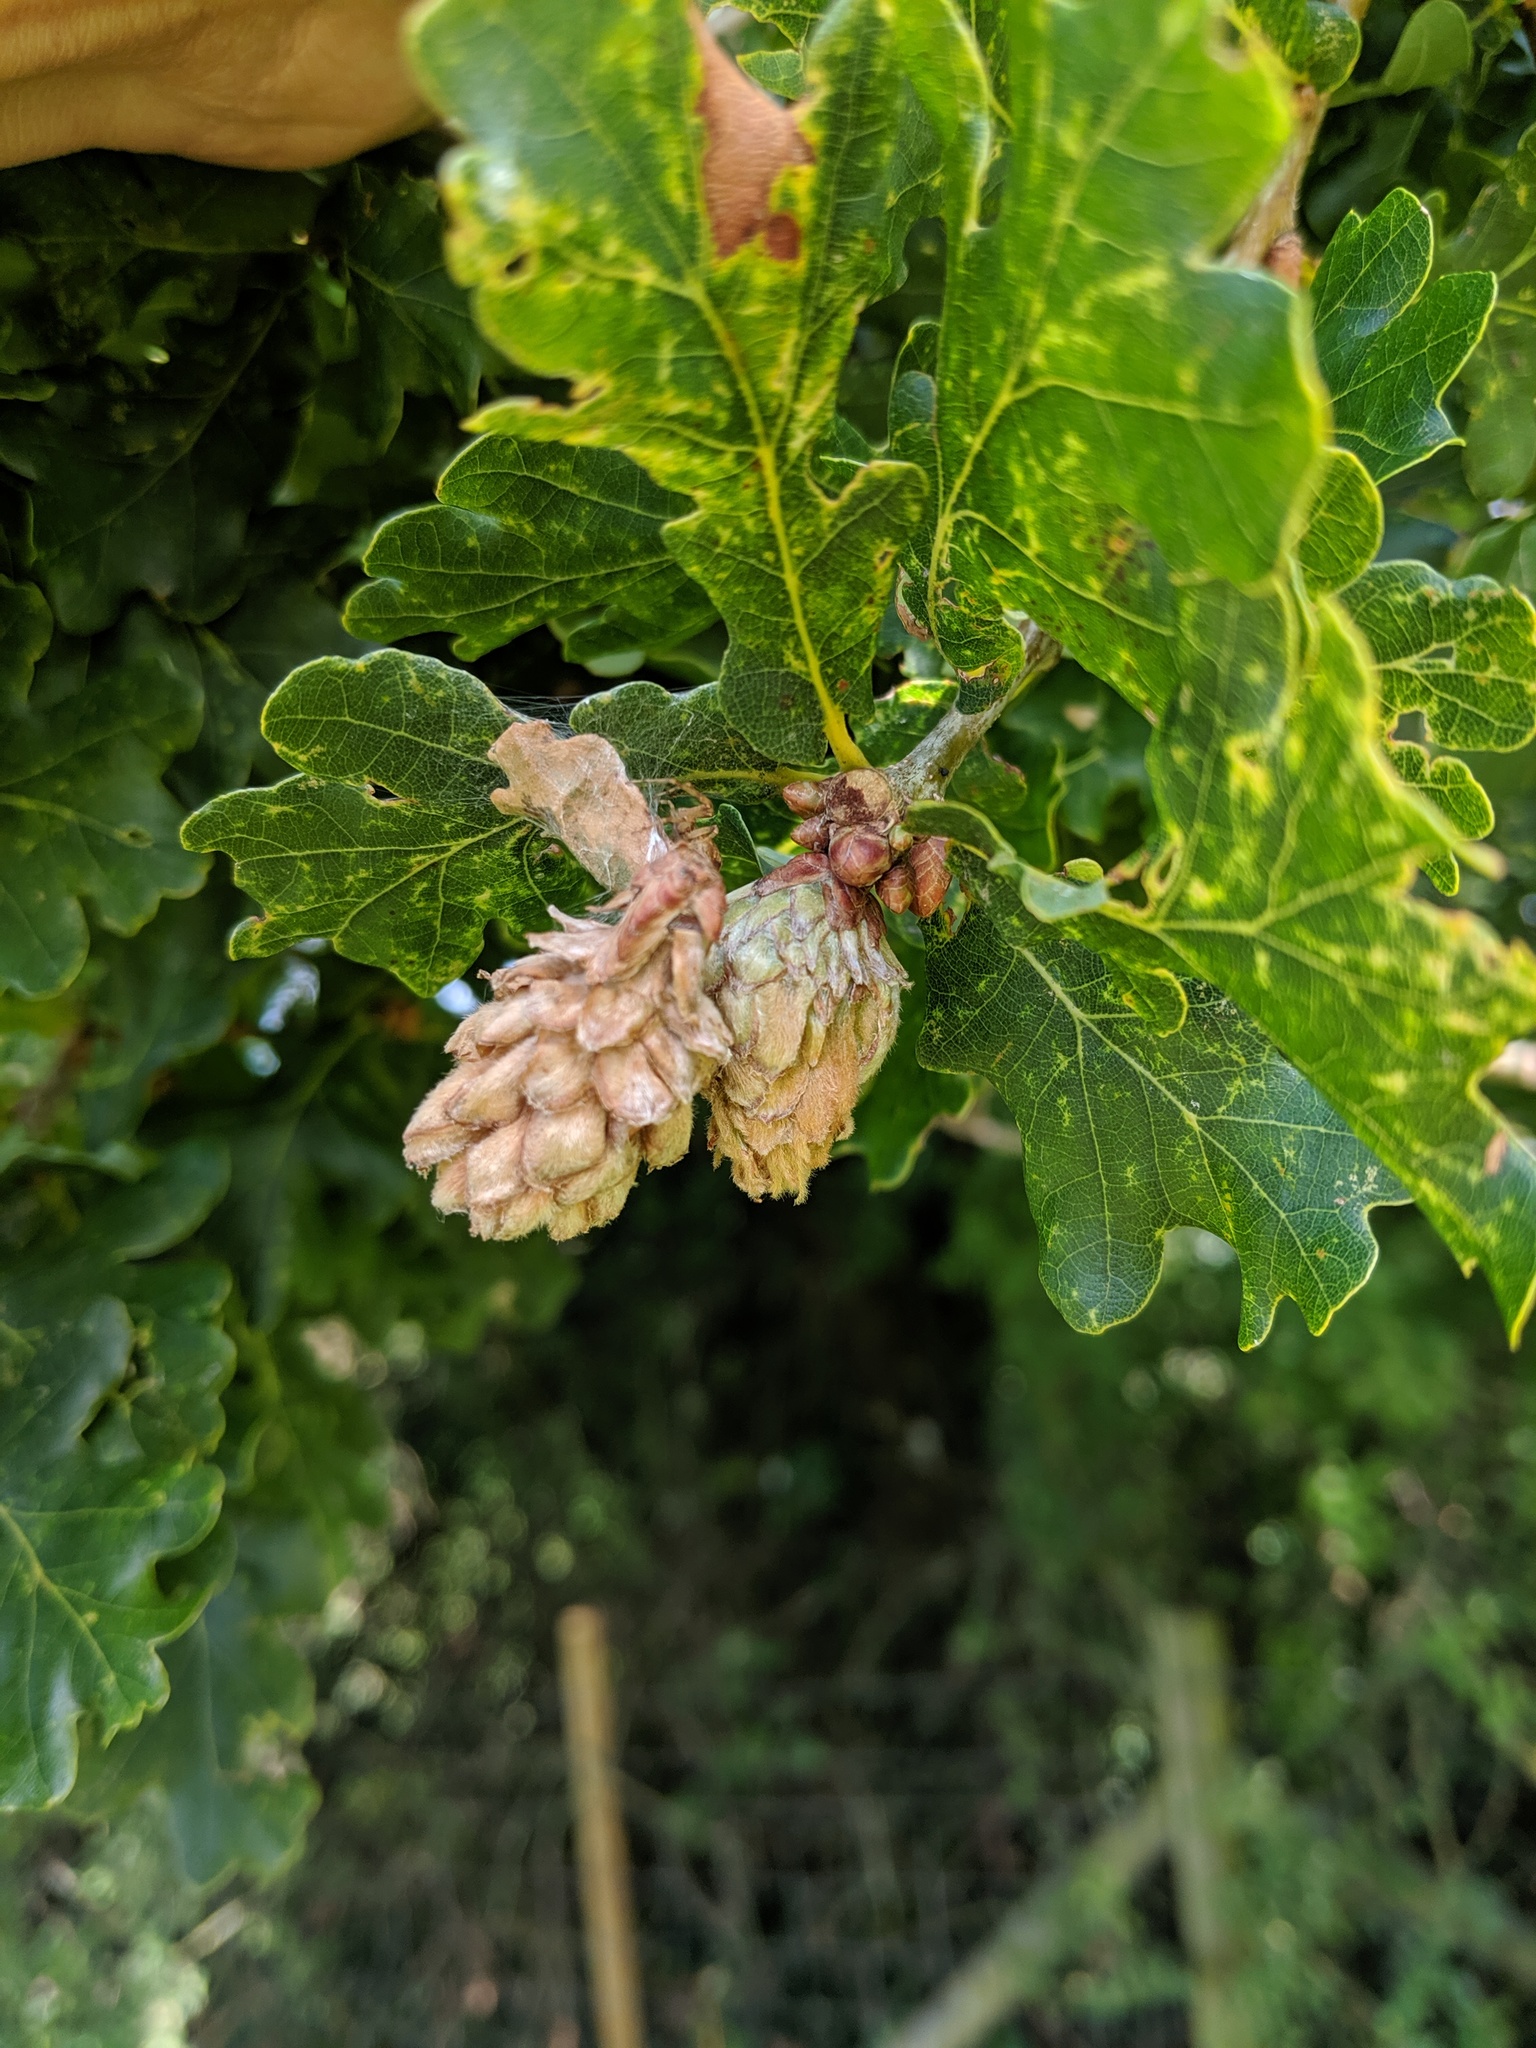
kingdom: Animalia
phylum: Arthropoda
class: Insecta
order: Hymenoptera
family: Cynipidae
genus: Andricus
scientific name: Andricus foecundatrix
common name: Artichoke gall
